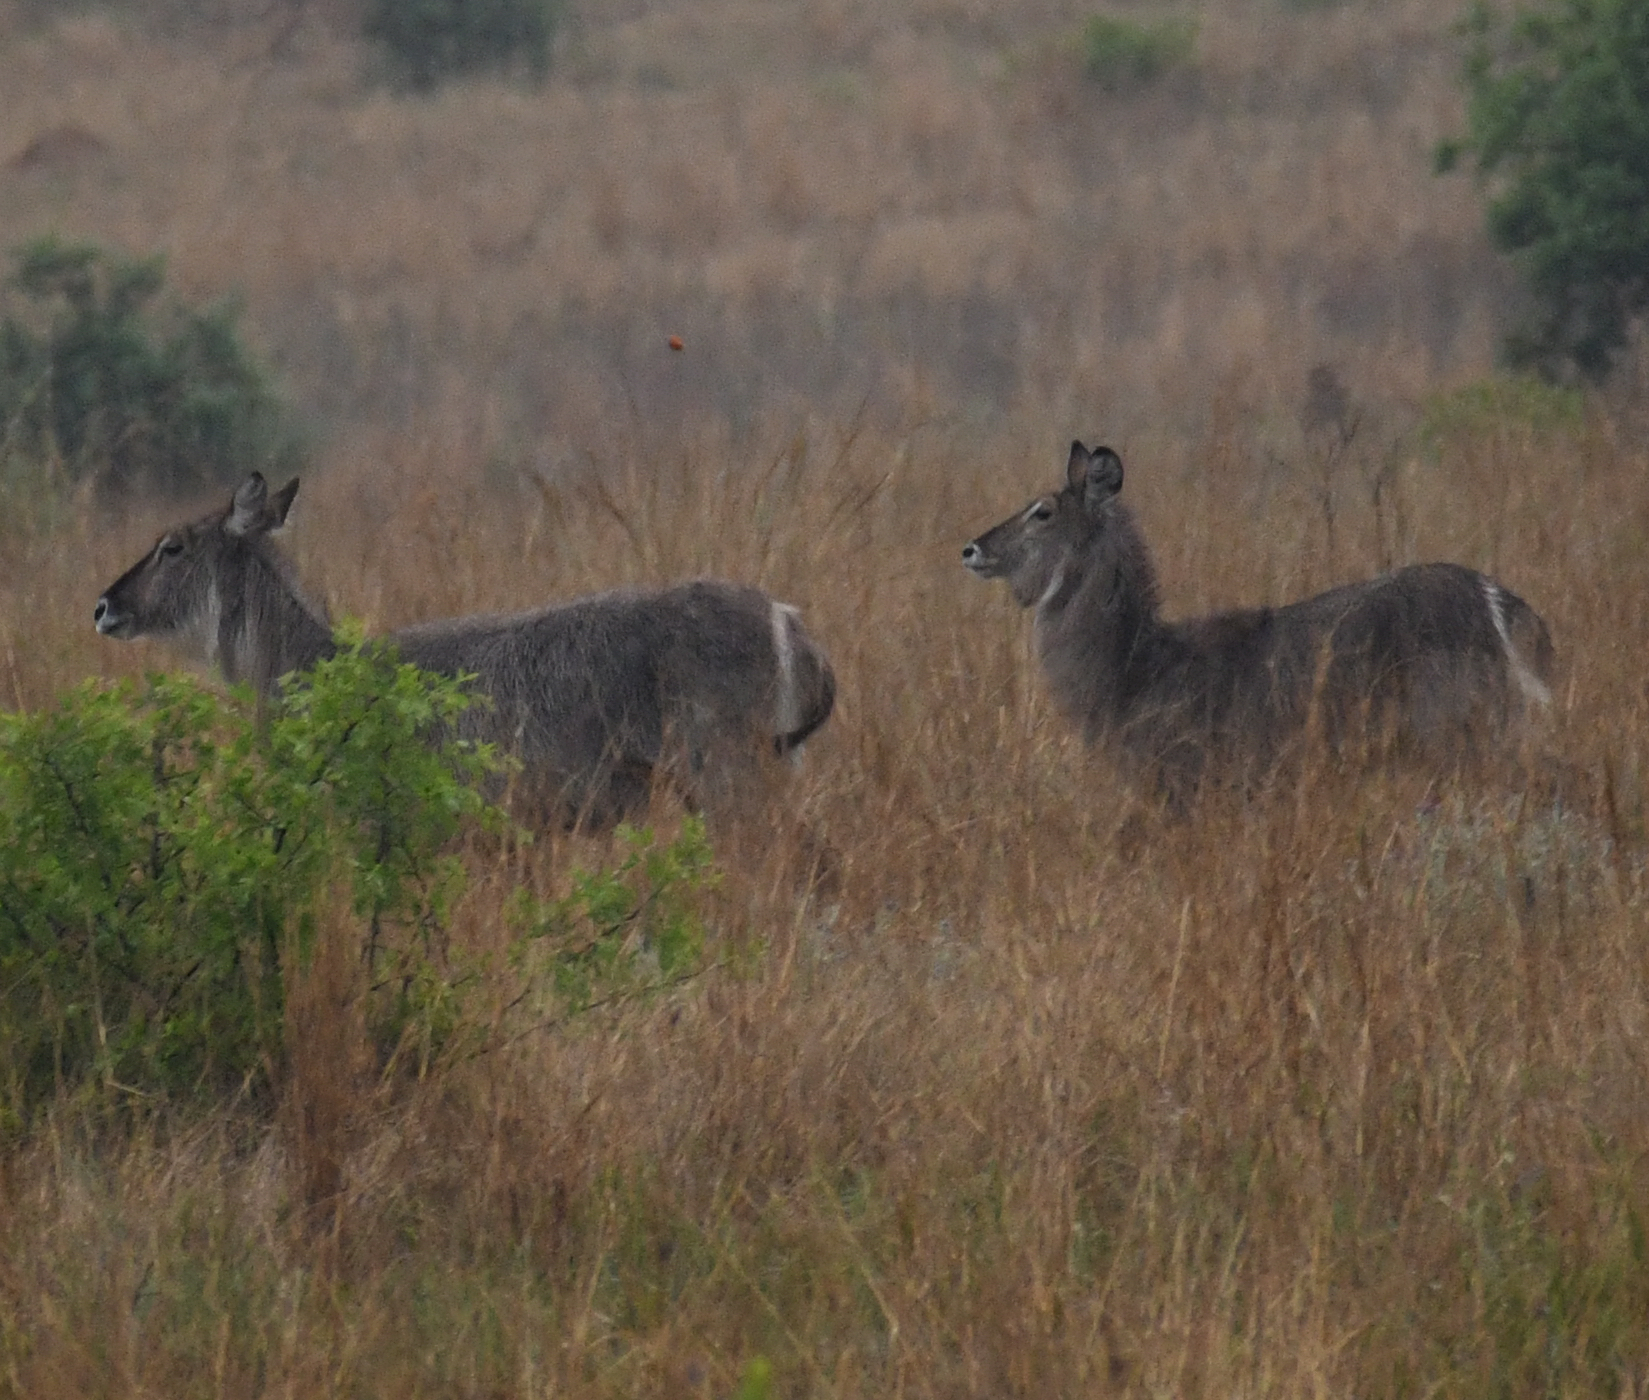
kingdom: Animalia
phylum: Chordata
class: Mammalia
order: Artiodactyla
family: Bovidae
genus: Kobus
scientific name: Kobus ellipsiprymnus
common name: Waterbuck
